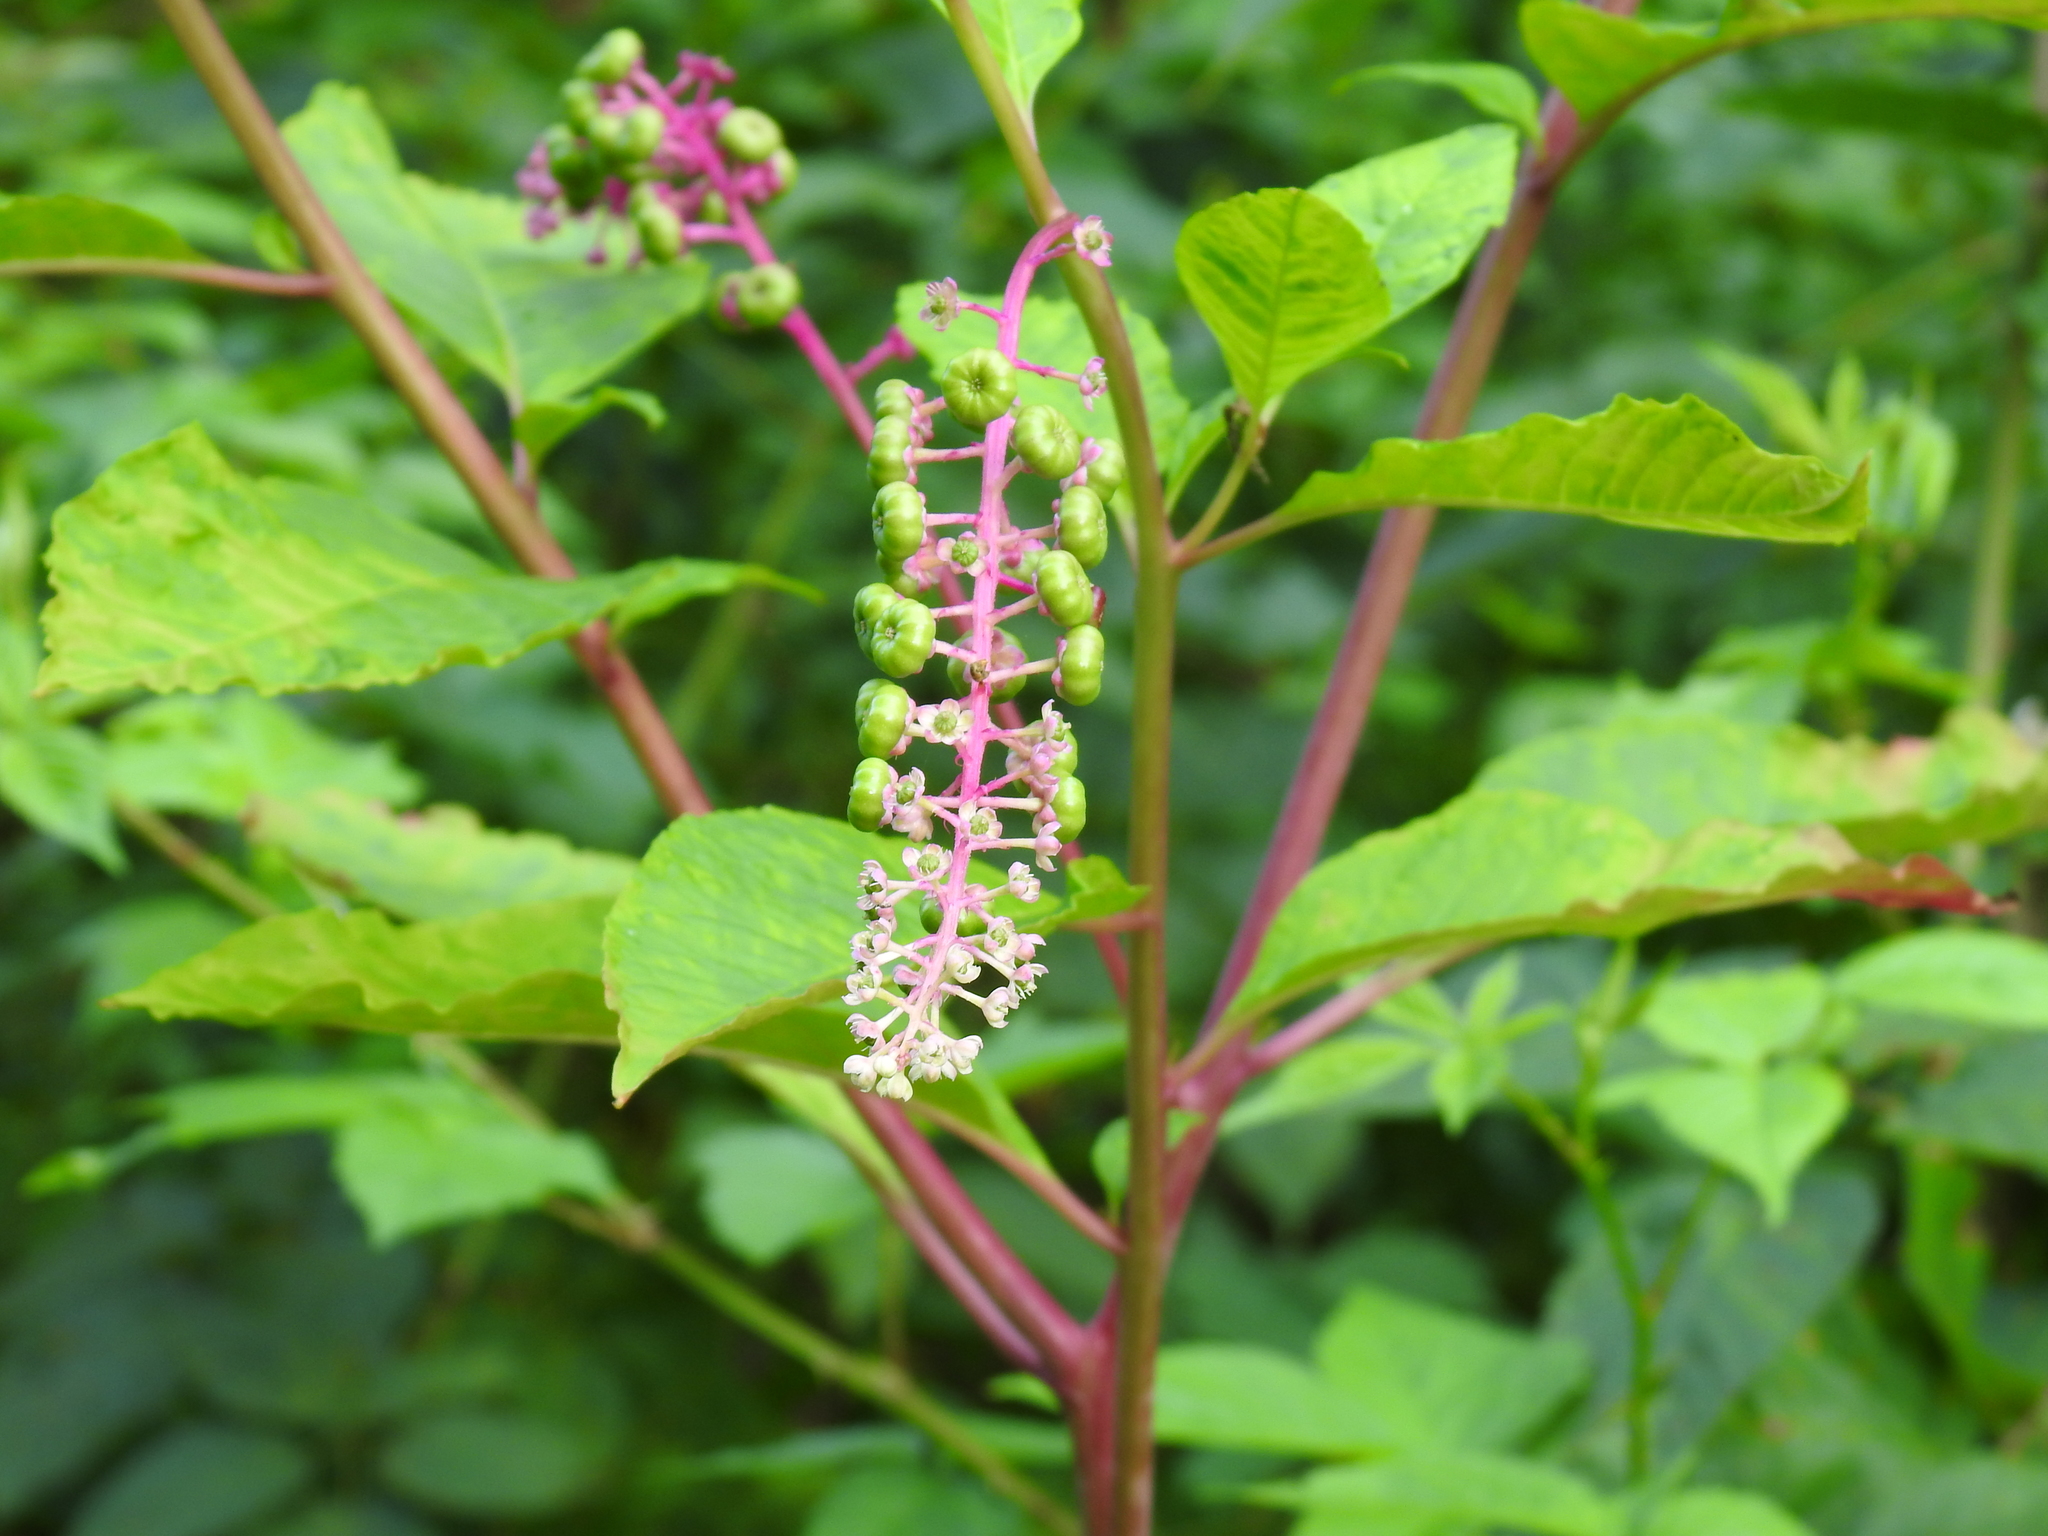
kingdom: Plantae
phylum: Tracheophyta
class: Magnoliopsida
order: Caryophyllales
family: Phytolaccaceae
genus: Phytolacca
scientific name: Phytolacca americana
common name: American pokeweed
